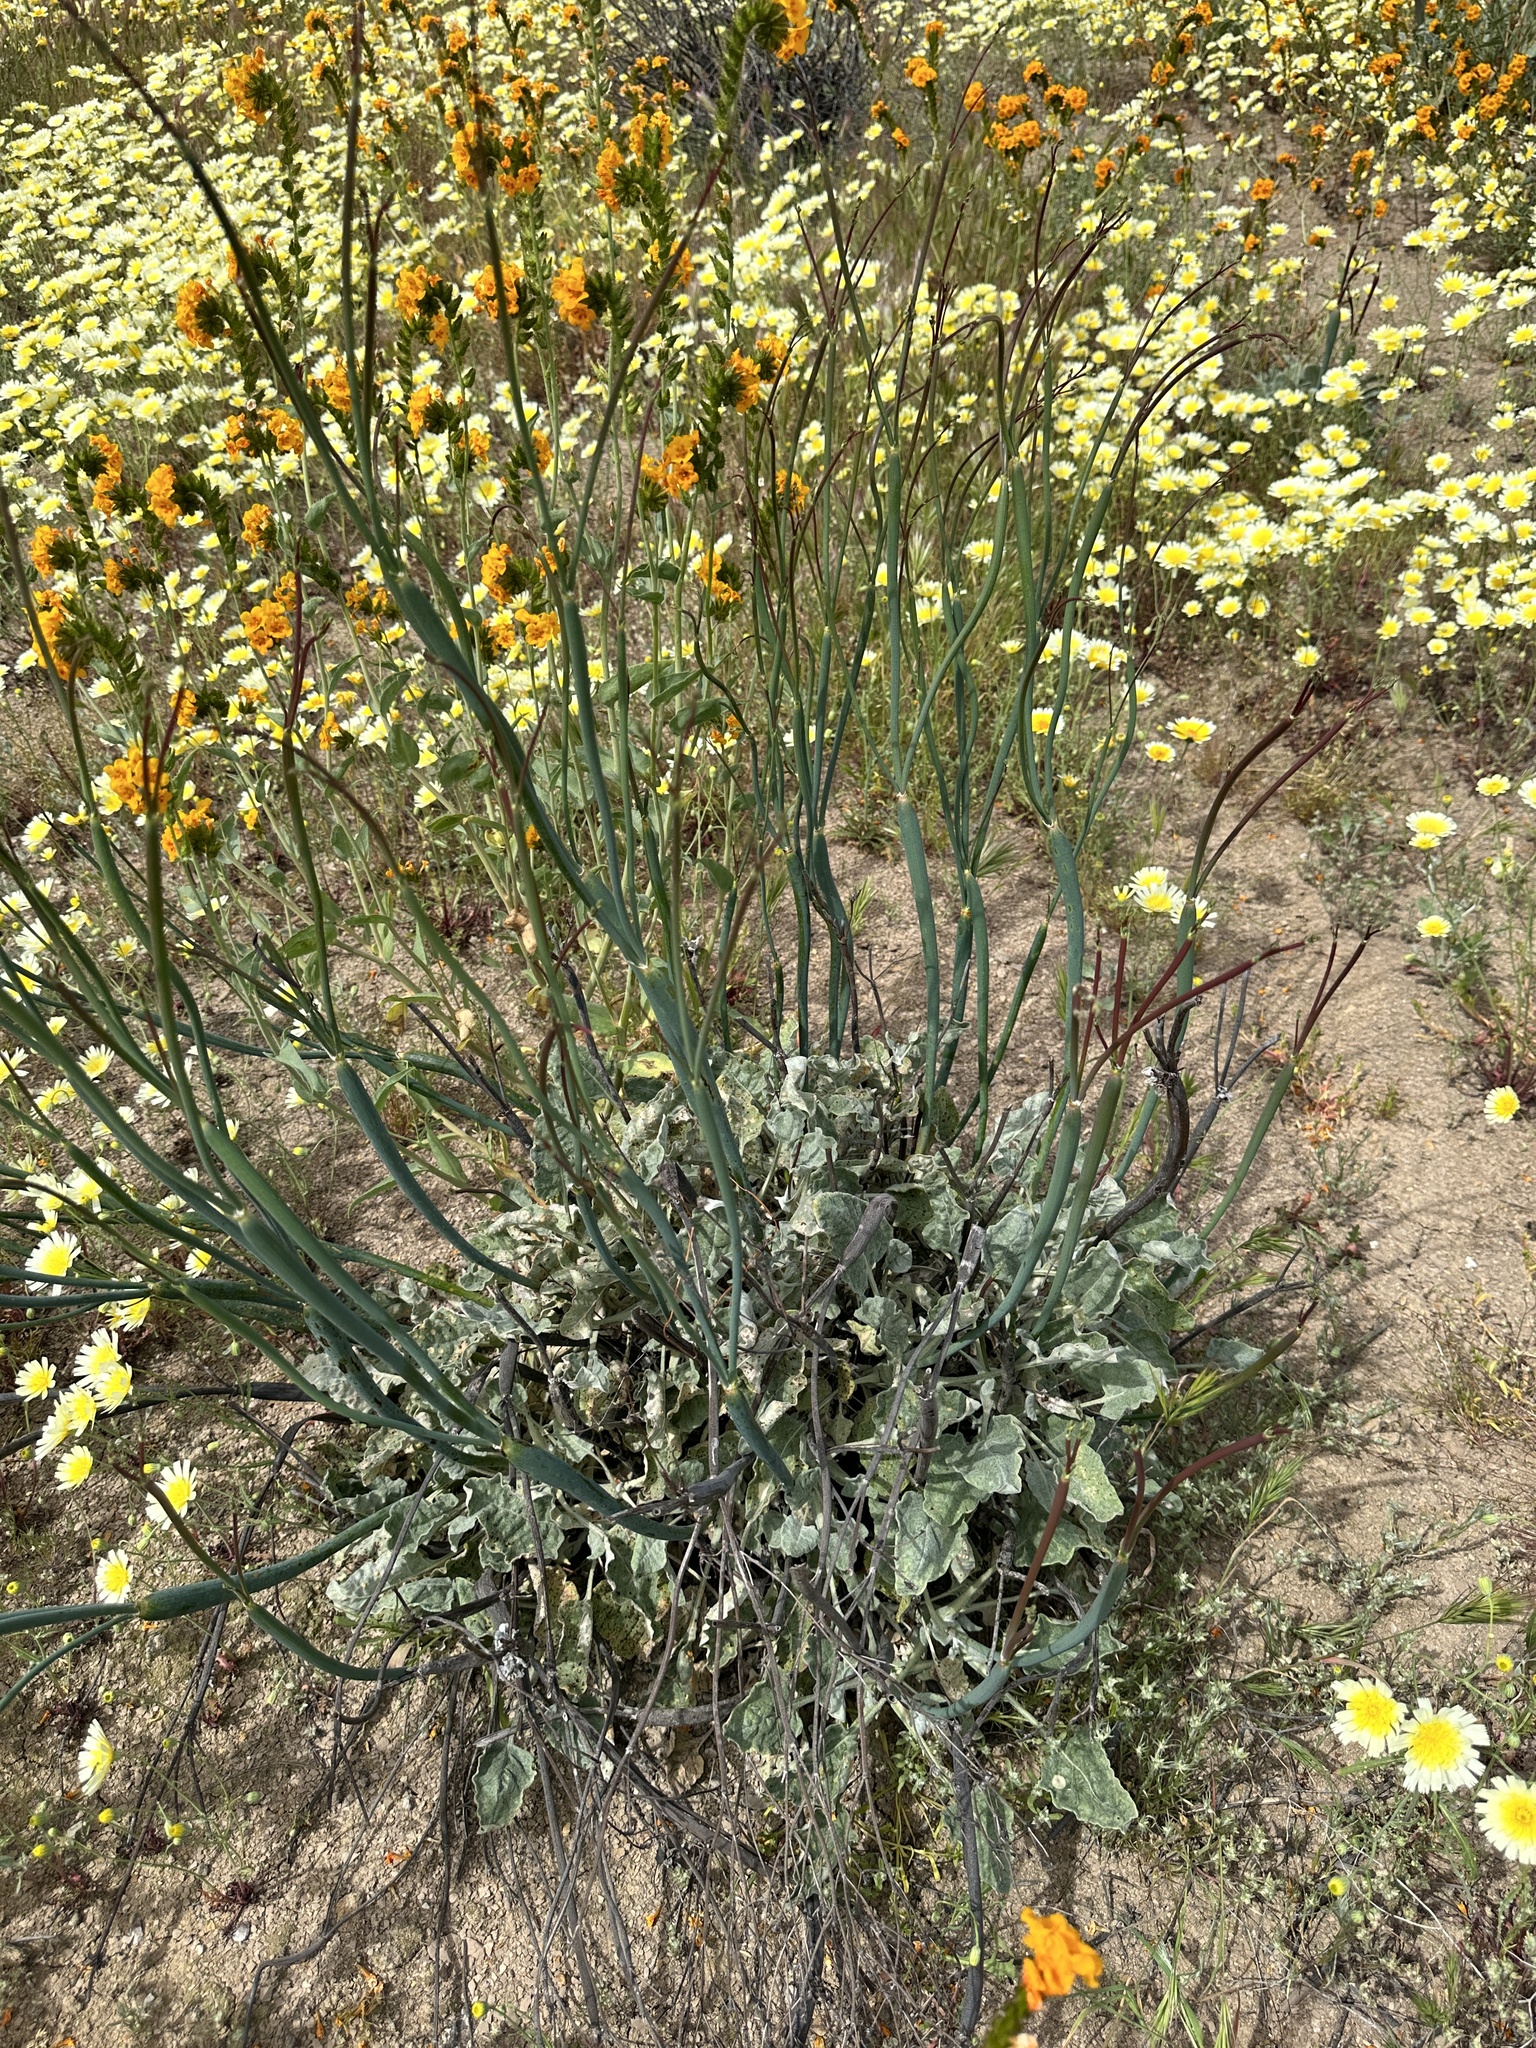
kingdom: Plantae
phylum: Tracheophyta
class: Magnoliopsida
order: Caryophyllales
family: Polygonaceae
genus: Eriogonum
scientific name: Eriogonum nudum
